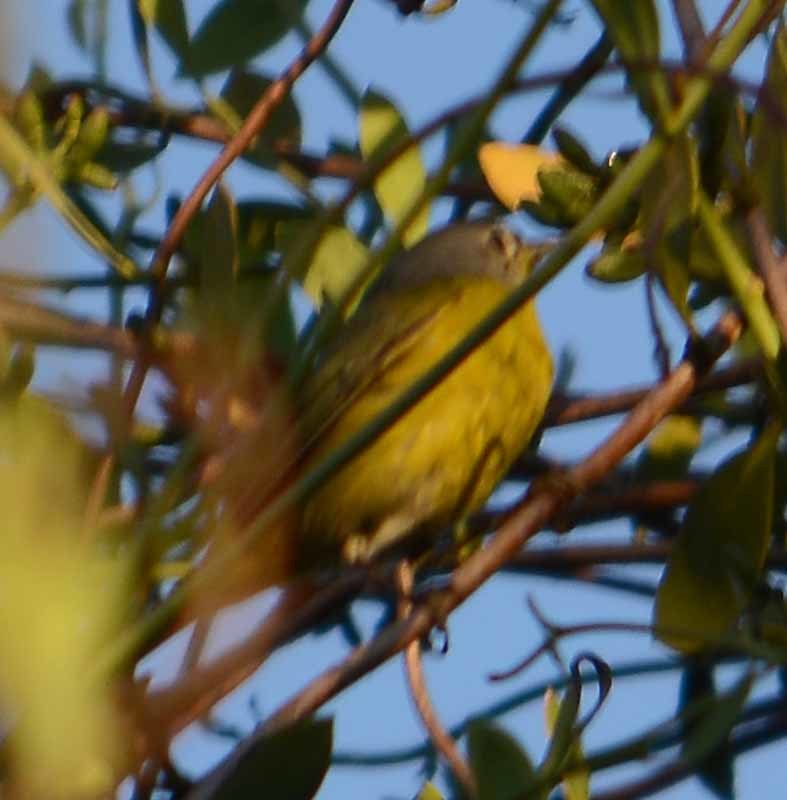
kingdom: Animalia
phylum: Chordata
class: Aves
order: Passeriformes
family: Parulidae
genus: Leiothlypis
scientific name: Leiothlypis ruficapilla
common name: Nashville warbler
